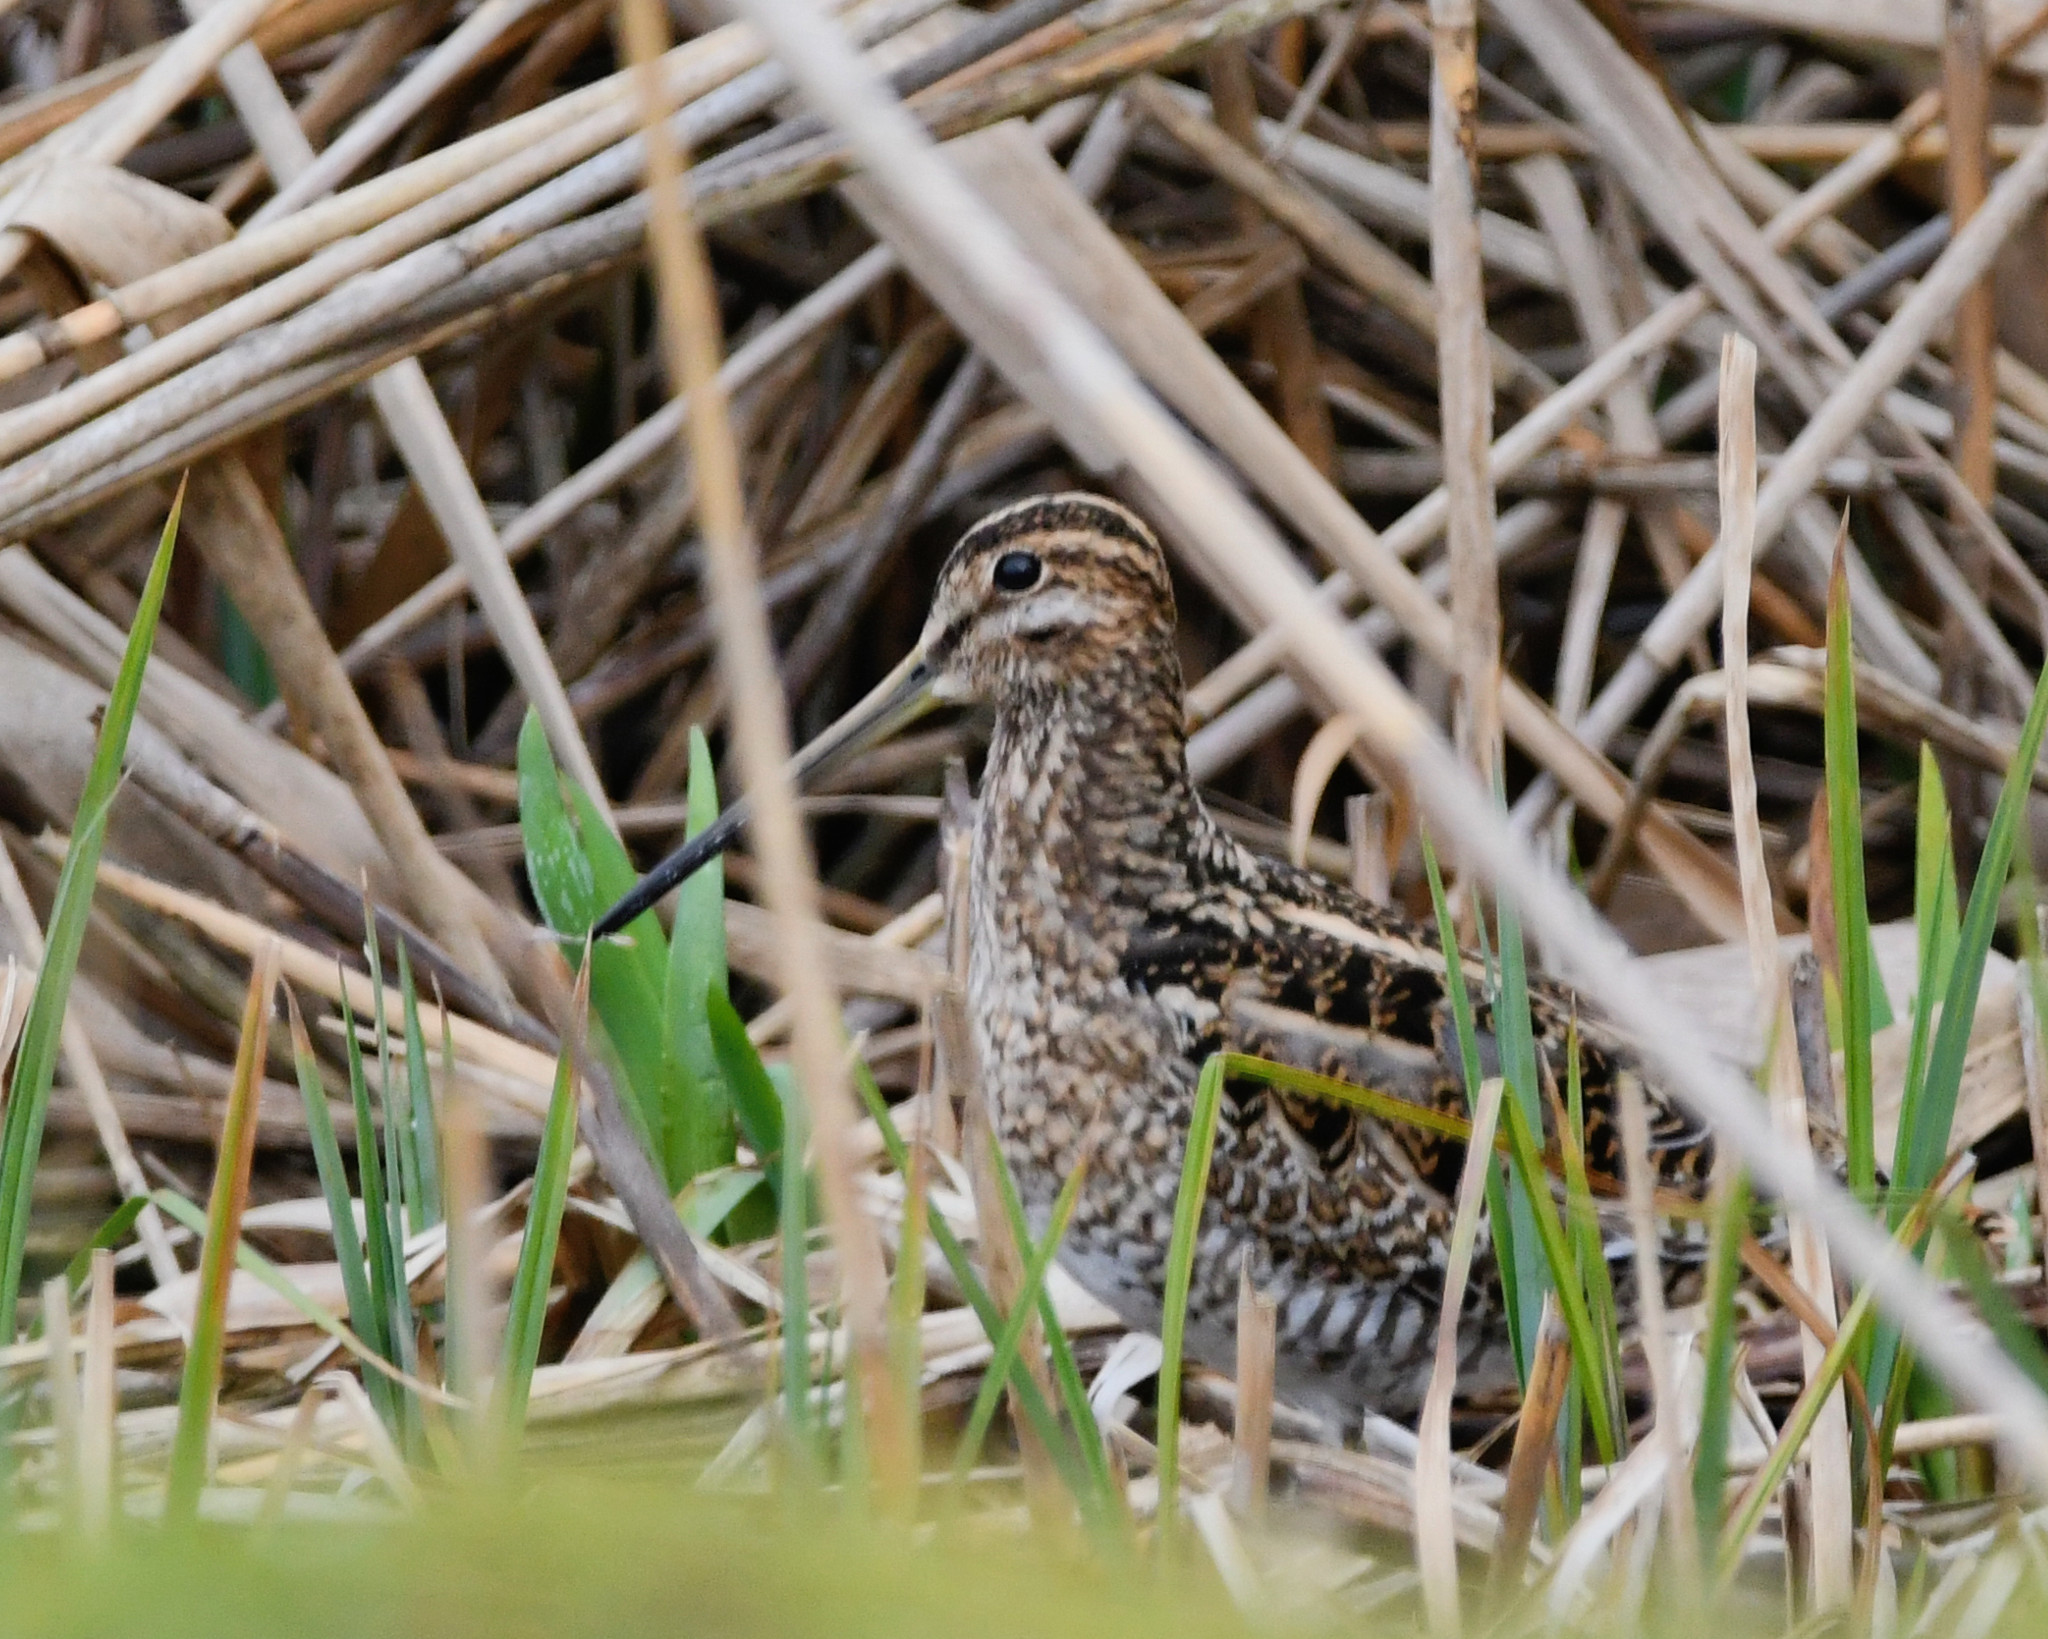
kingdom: Animalia
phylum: Chordata
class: Aves
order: Charadriiformes
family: Scolopacidae
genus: Gallinago
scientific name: Gallinago gallinago
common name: Common snipe
